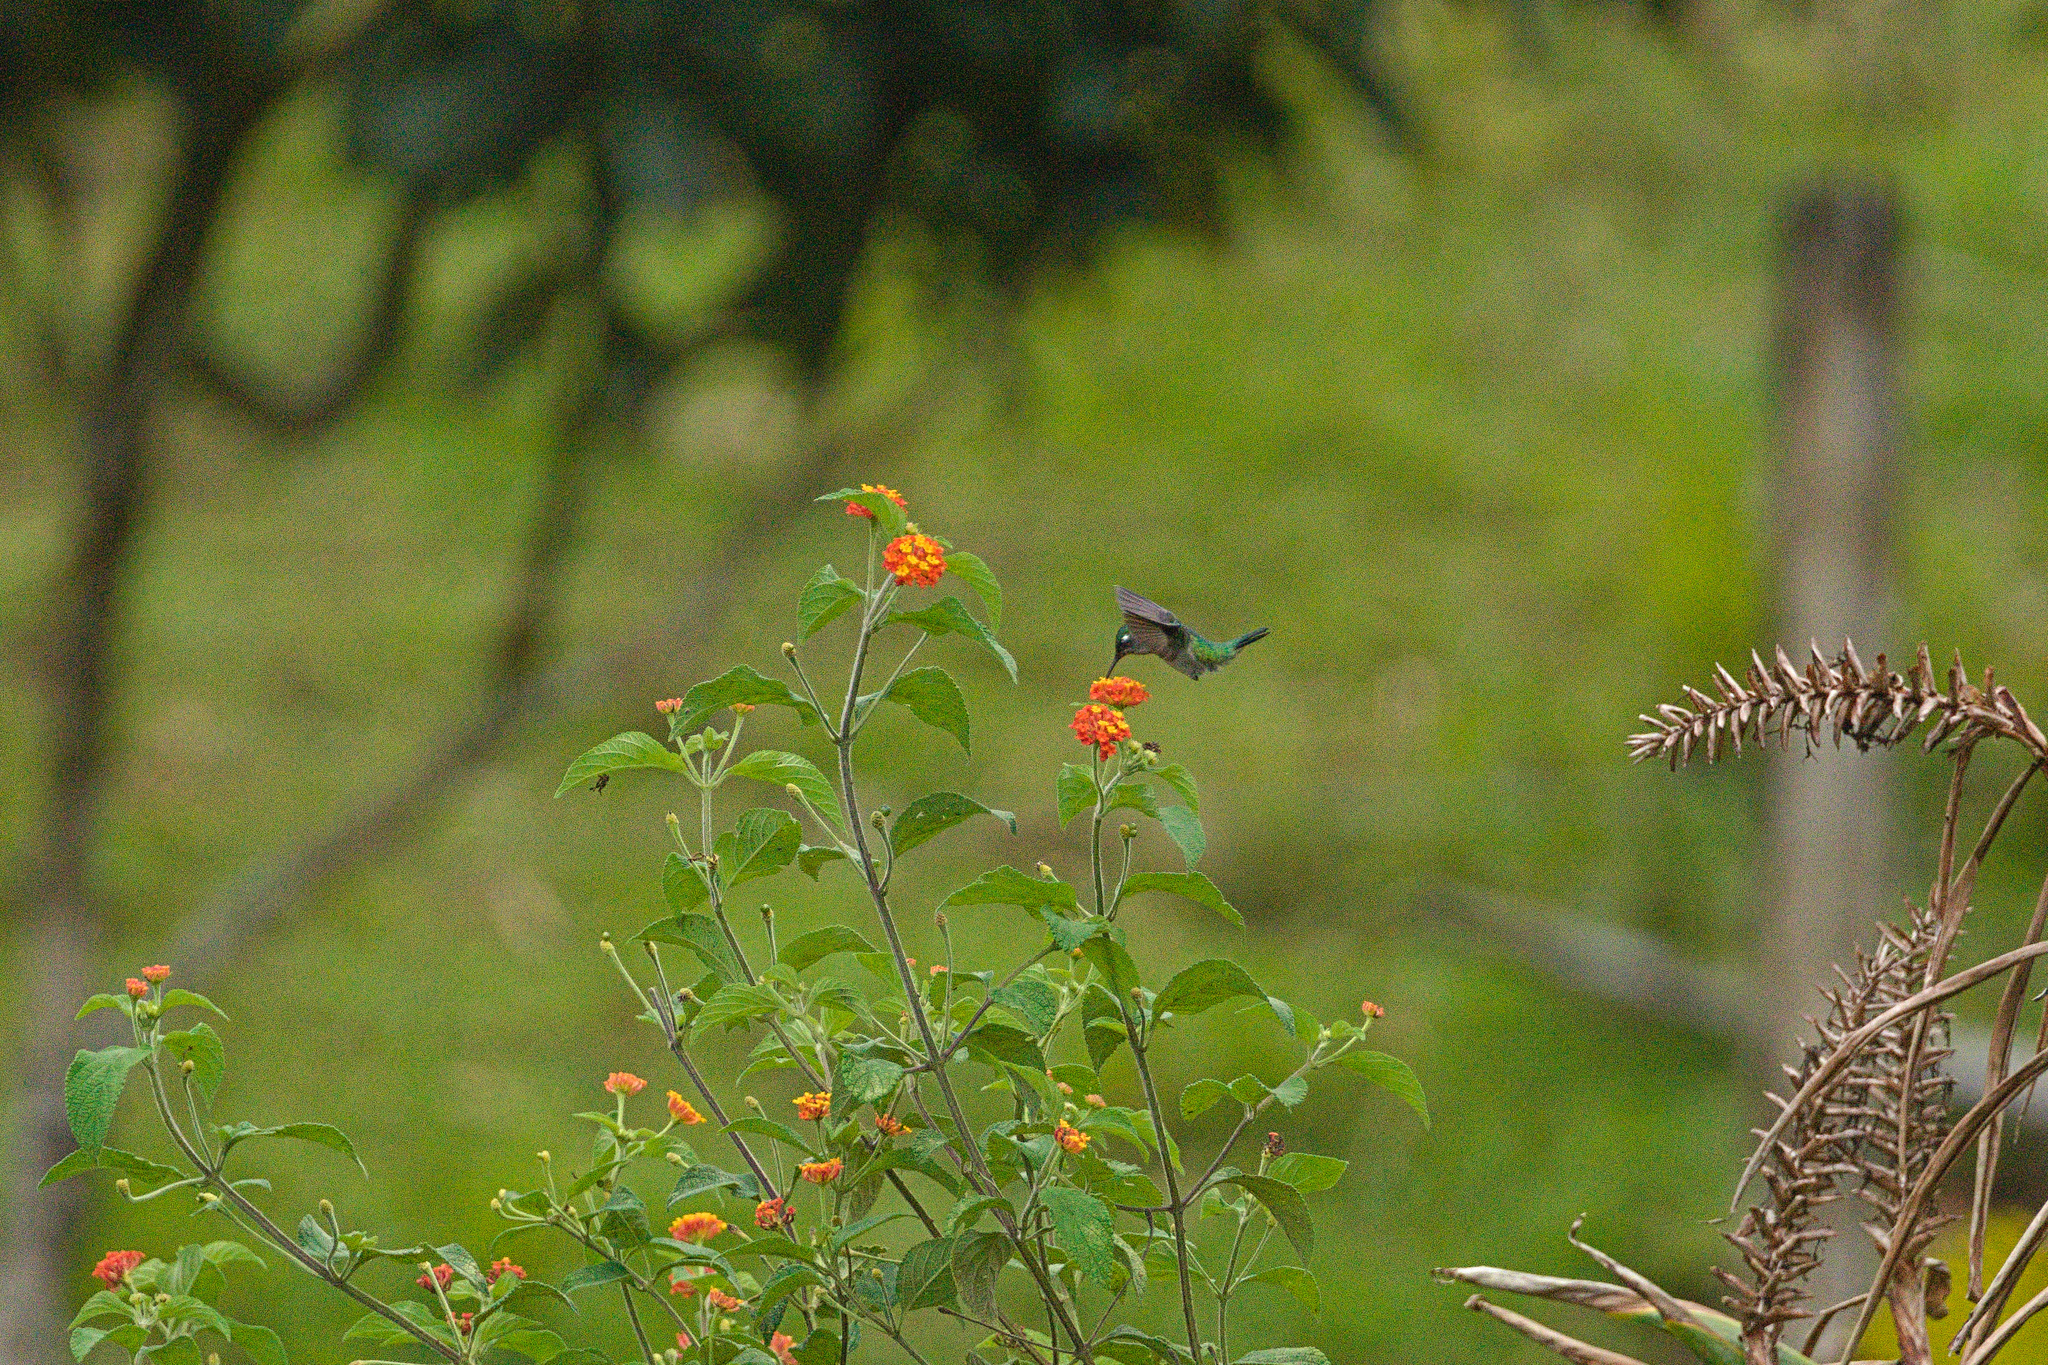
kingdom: Animalia
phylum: Chordata
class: Aves
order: Apodiformes
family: Trochilidae
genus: Klais
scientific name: Klais guimeti
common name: Violet-headed hummingbird
